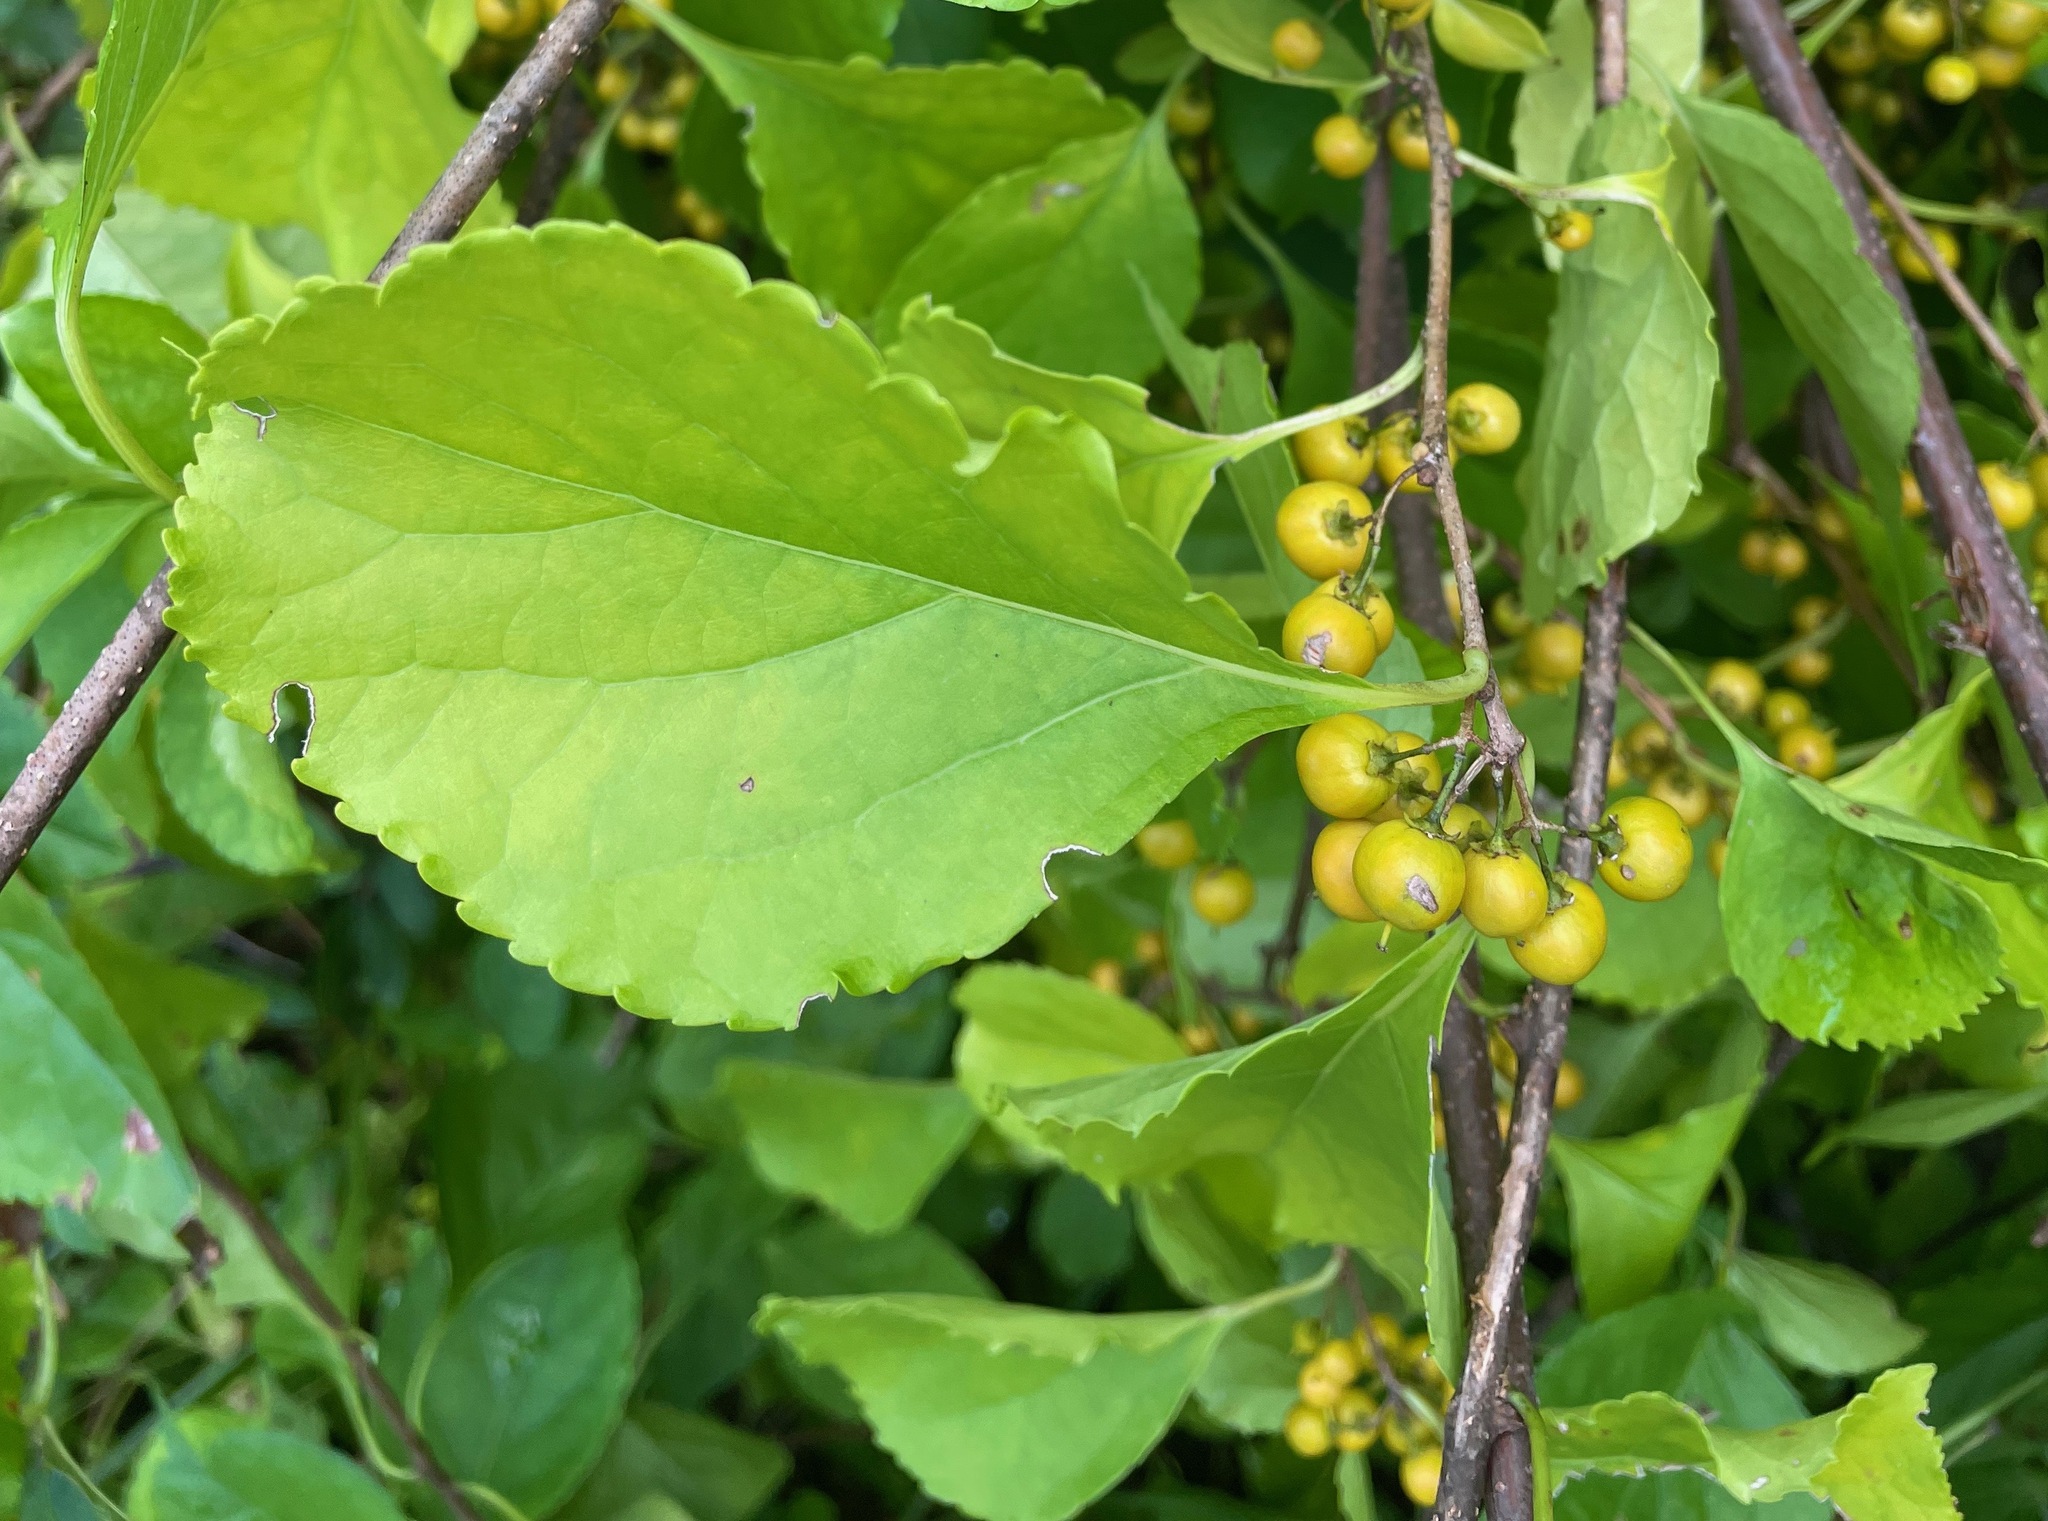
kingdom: Plantae
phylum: Tracheophyta
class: Magnoliopsida
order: Celastrales
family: Celastraceae
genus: Celastrus
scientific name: Celastrus orbiculatus
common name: Oriental bittersweet
